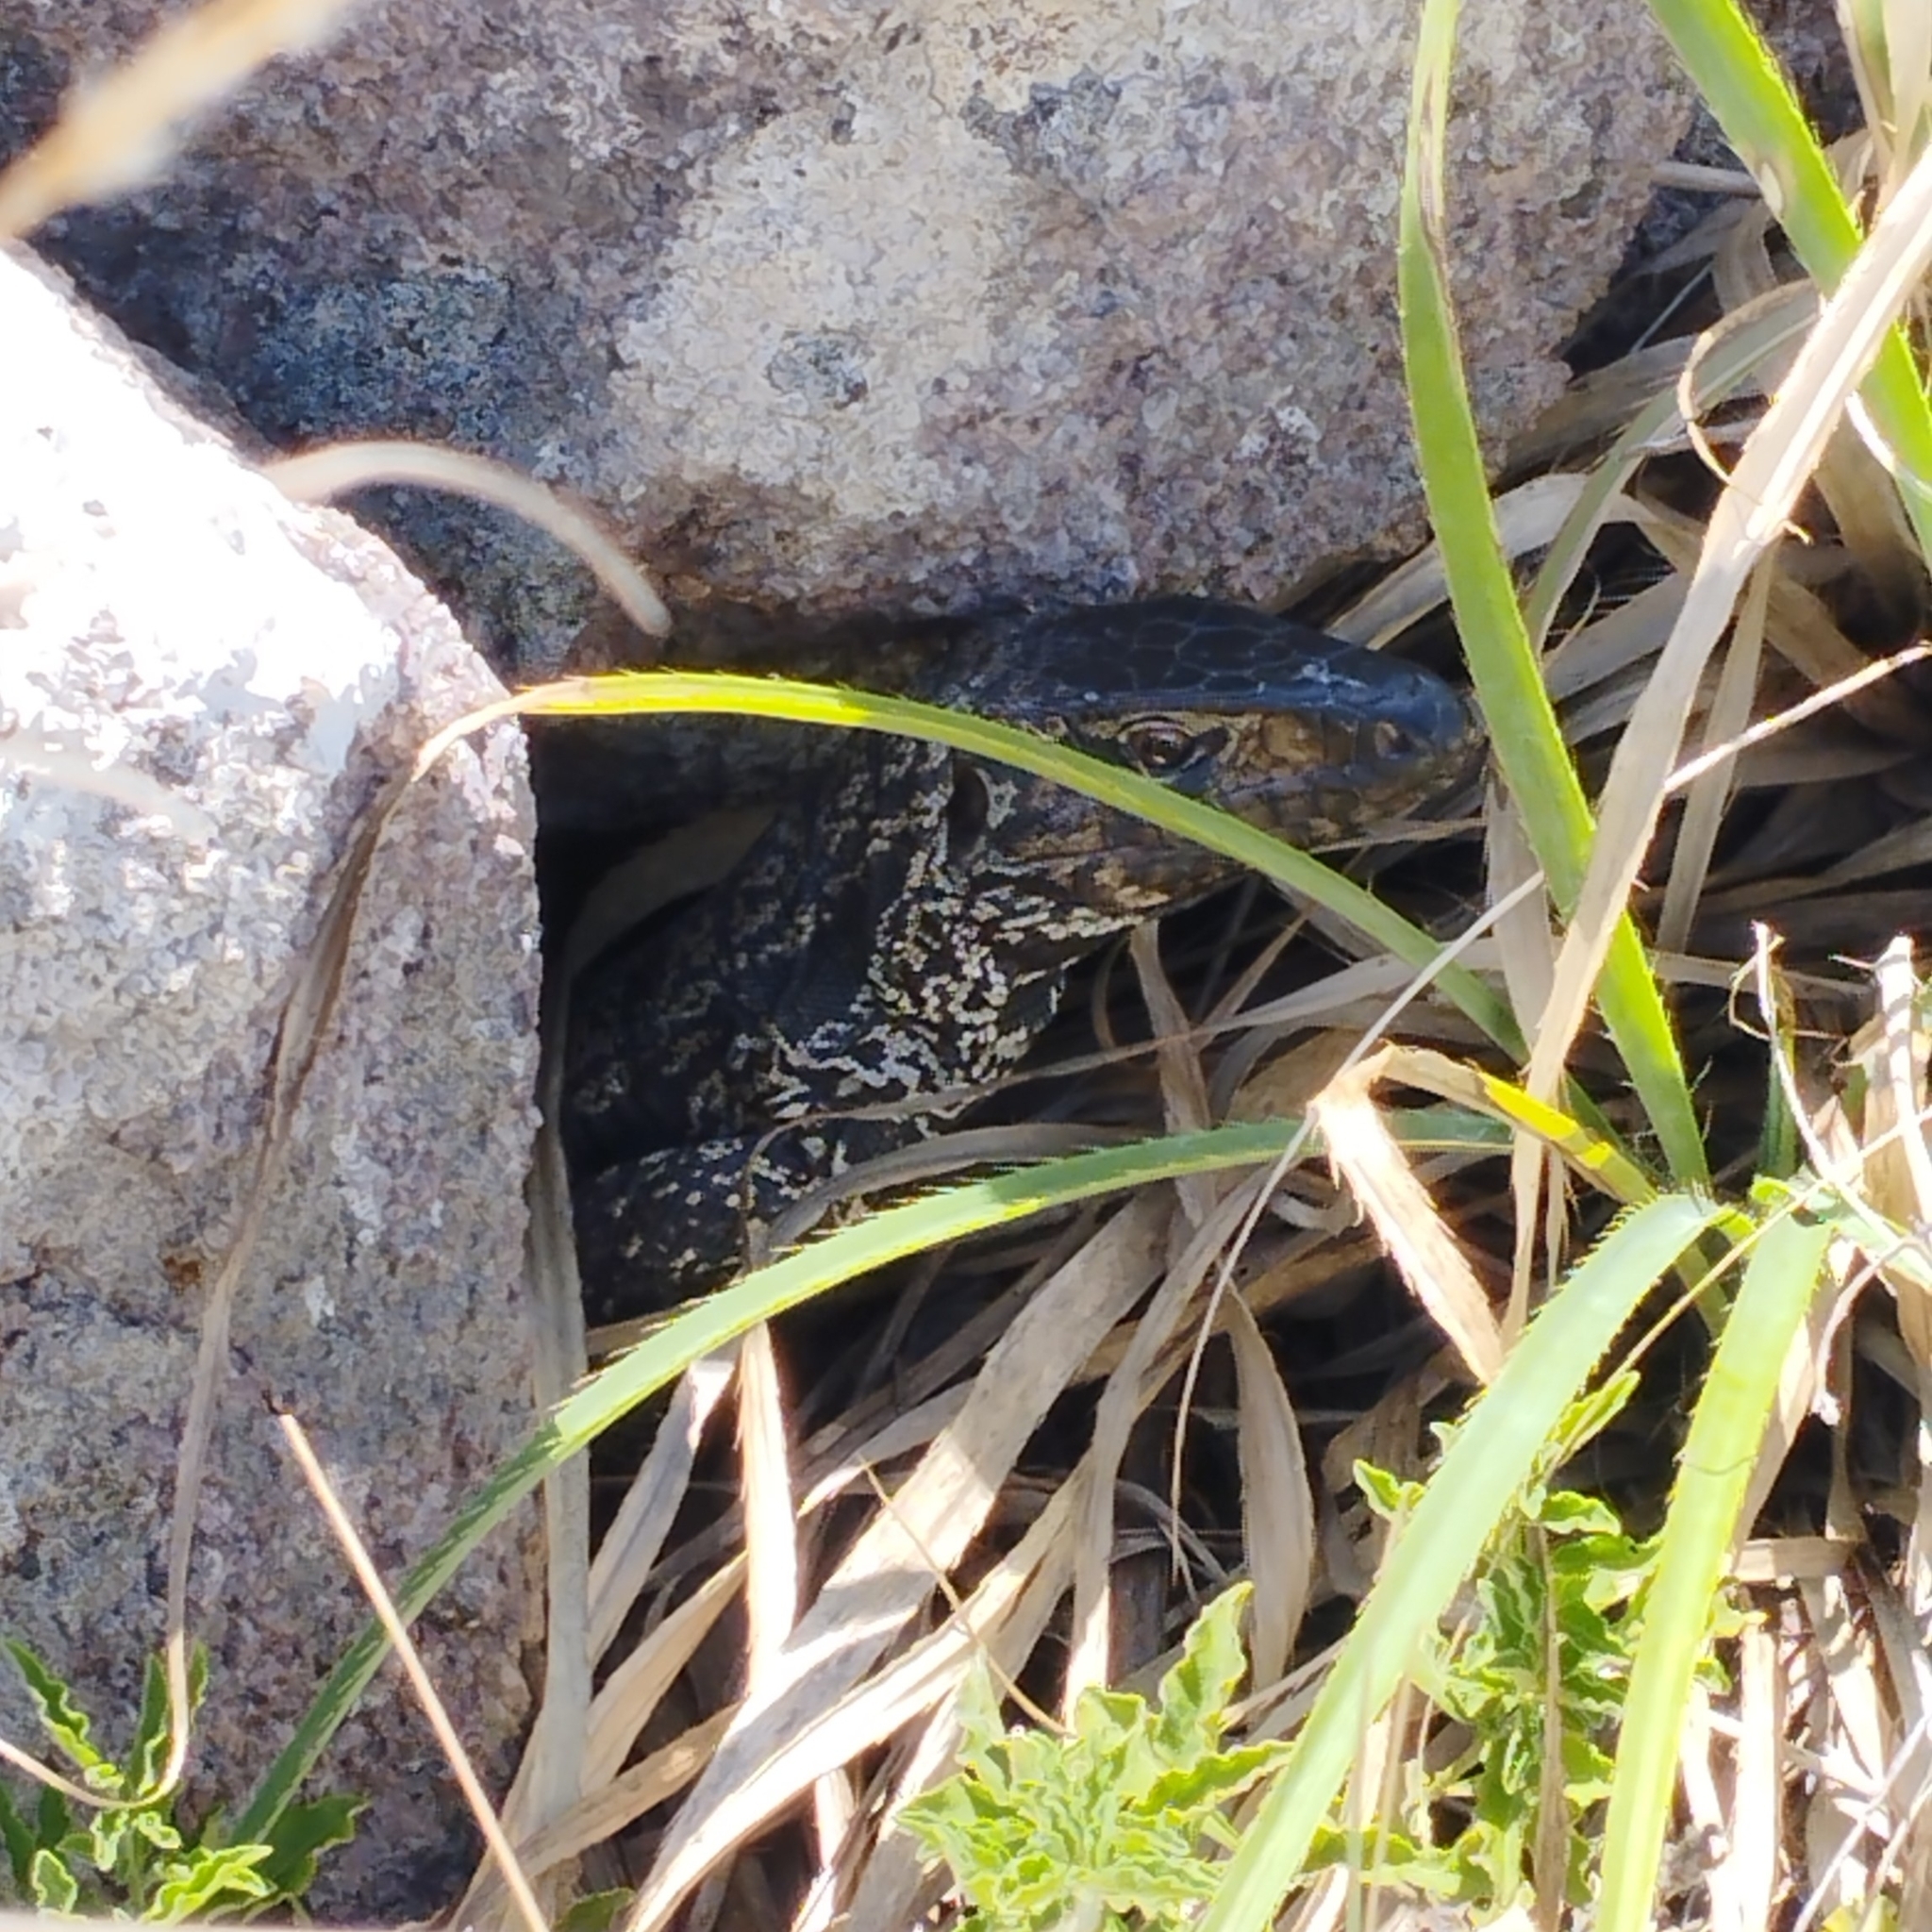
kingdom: Animalia
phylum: Chordata
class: Squamata
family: Teiidae
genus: Salvator
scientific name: Salvator merianae
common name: Argentine black and white tegu
